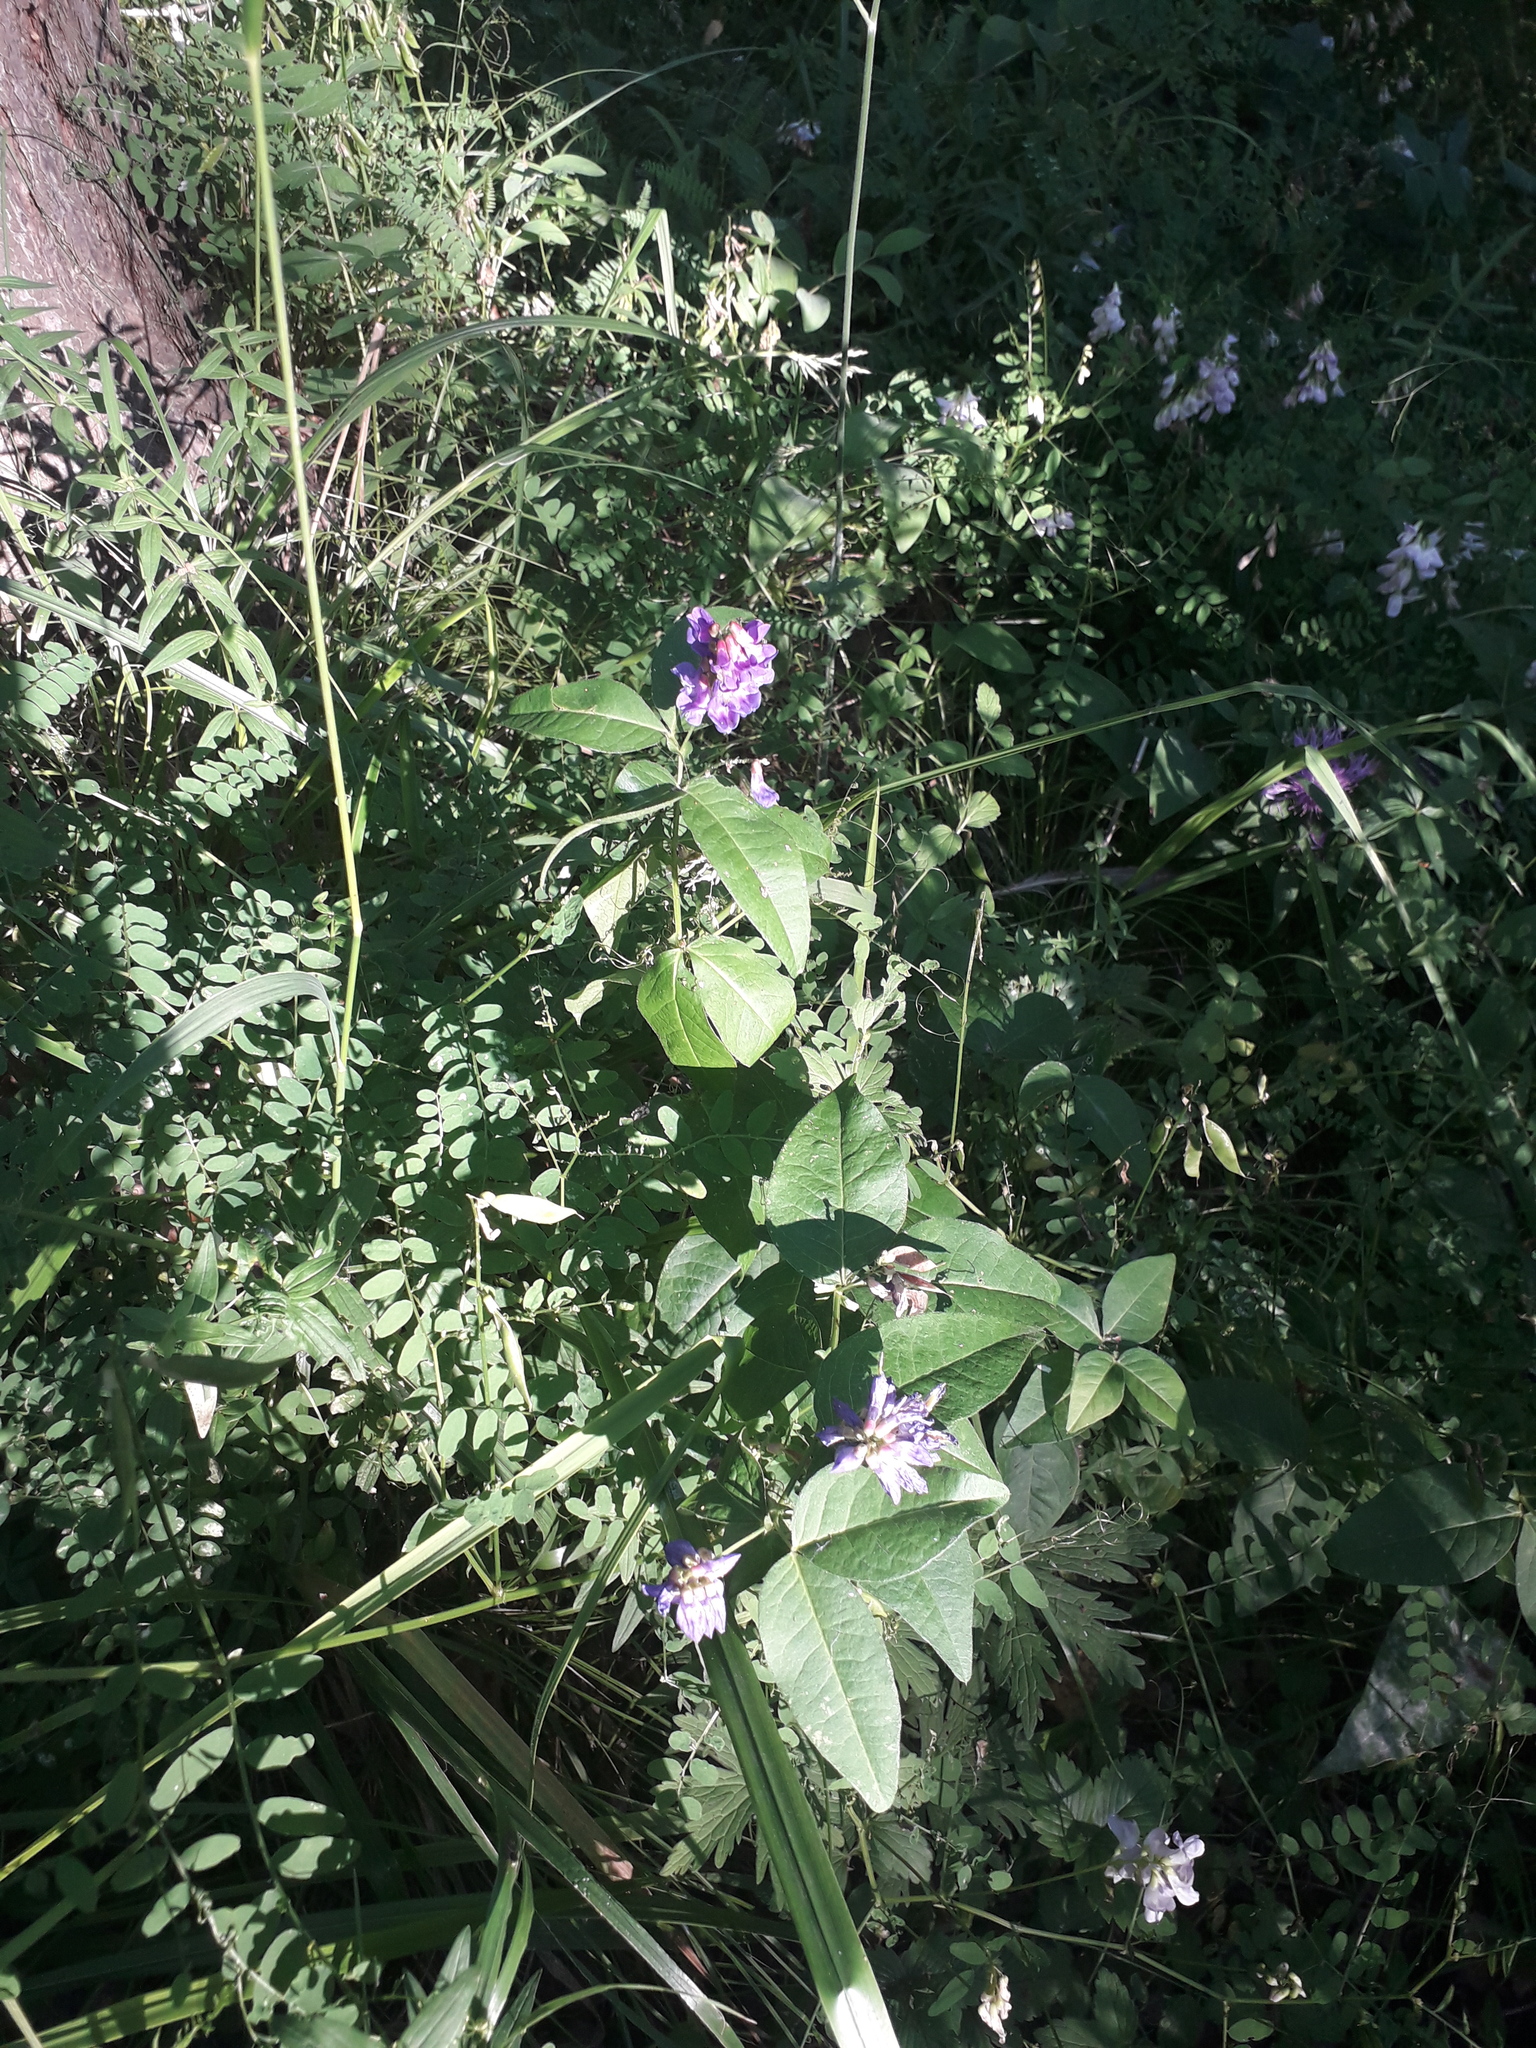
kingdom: Plantae
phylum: Tracheophyta
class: Magnoliopsida
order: Fabales
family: Fabaceae
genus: Vicia
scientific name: Vicia unijuga
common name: Two-leaf vetch
